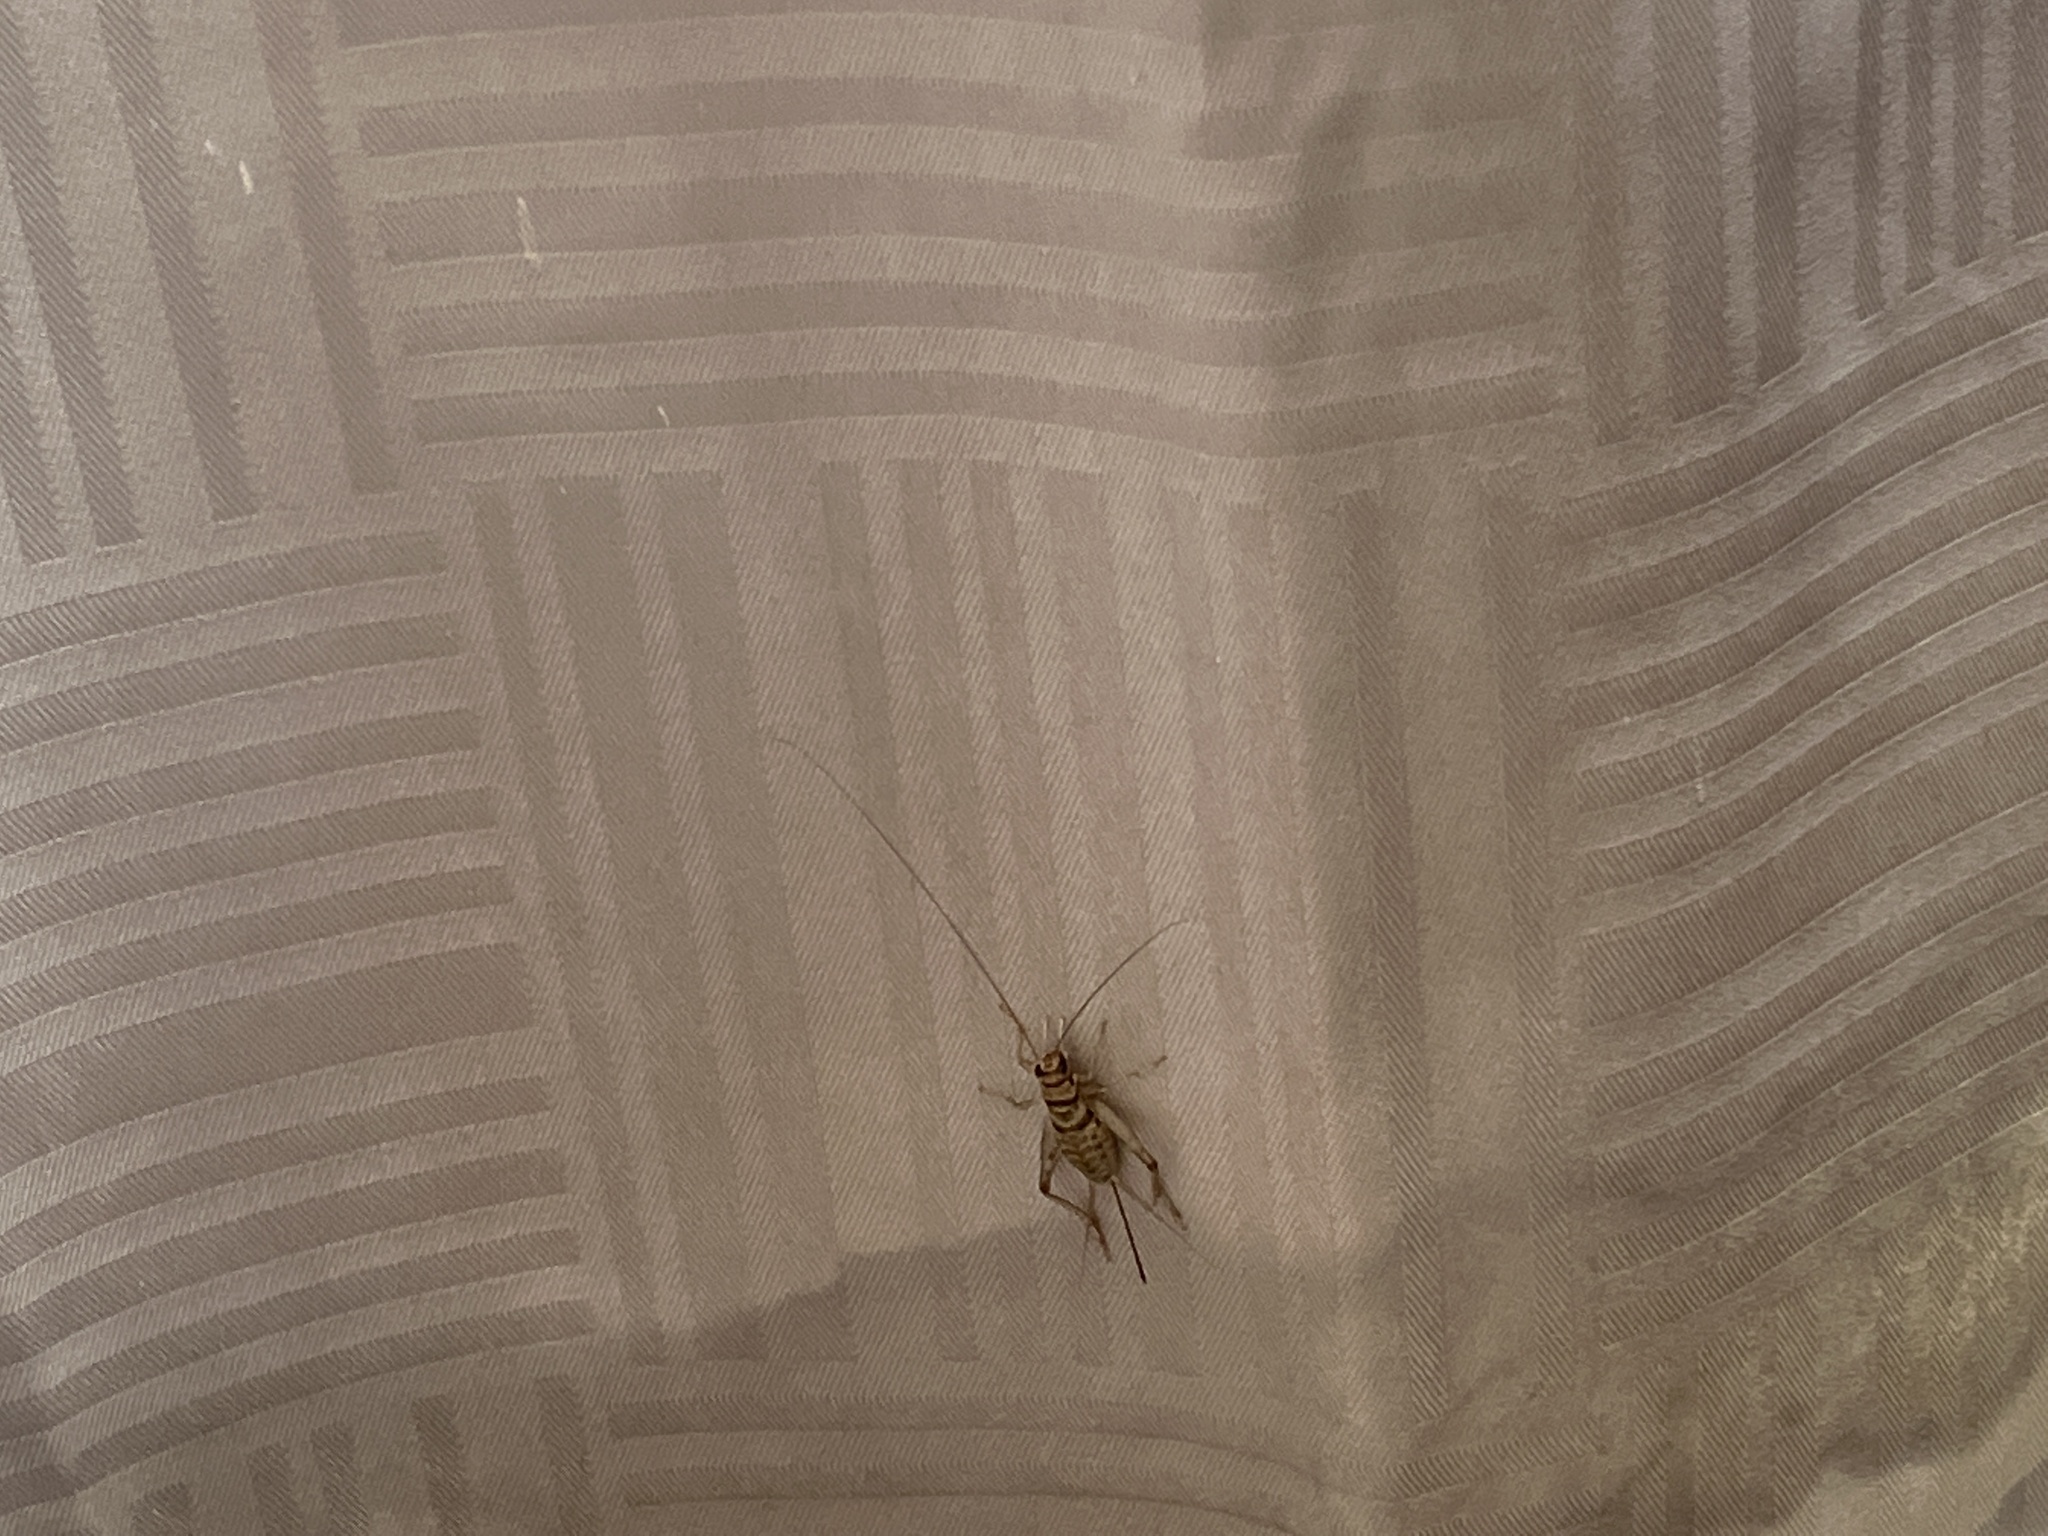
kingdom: Animalia
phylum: Arthropoda
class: Insecta
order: Orthoptera
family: Gryllidae
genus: Gryllodes
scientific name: Gryllodes sigillatus
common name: Tropical house cricket
